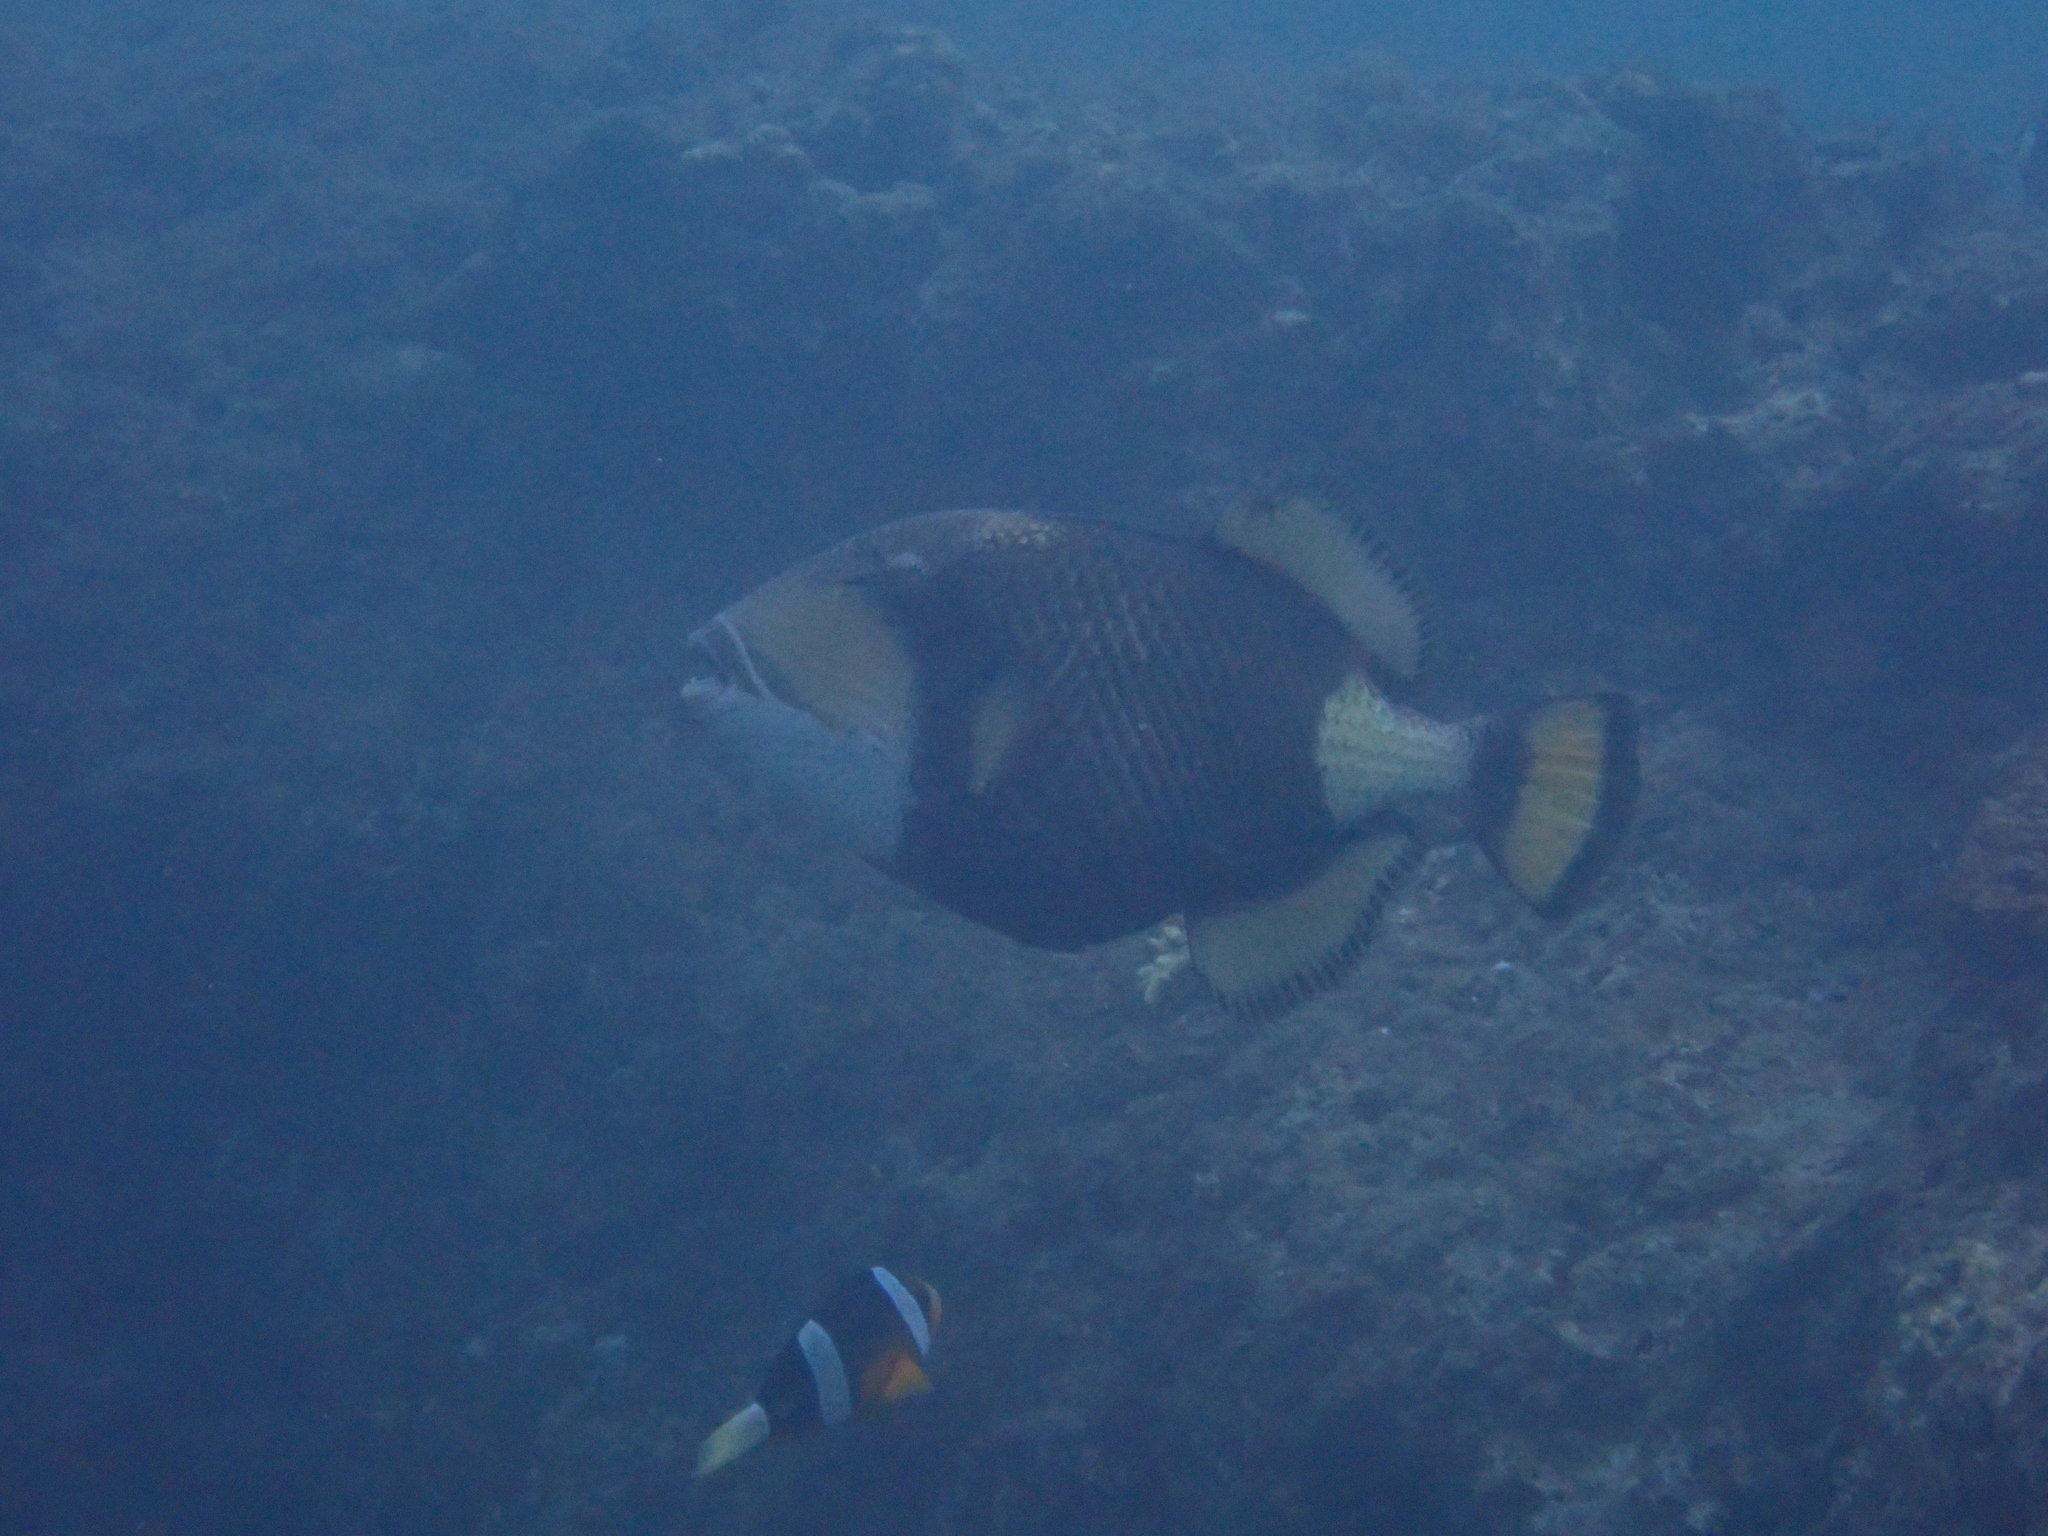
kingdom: Animalia
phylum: Chordata
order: Tetraodontiformes
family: Balistidae
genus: Balistoides
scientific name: Balistoides viridescens
